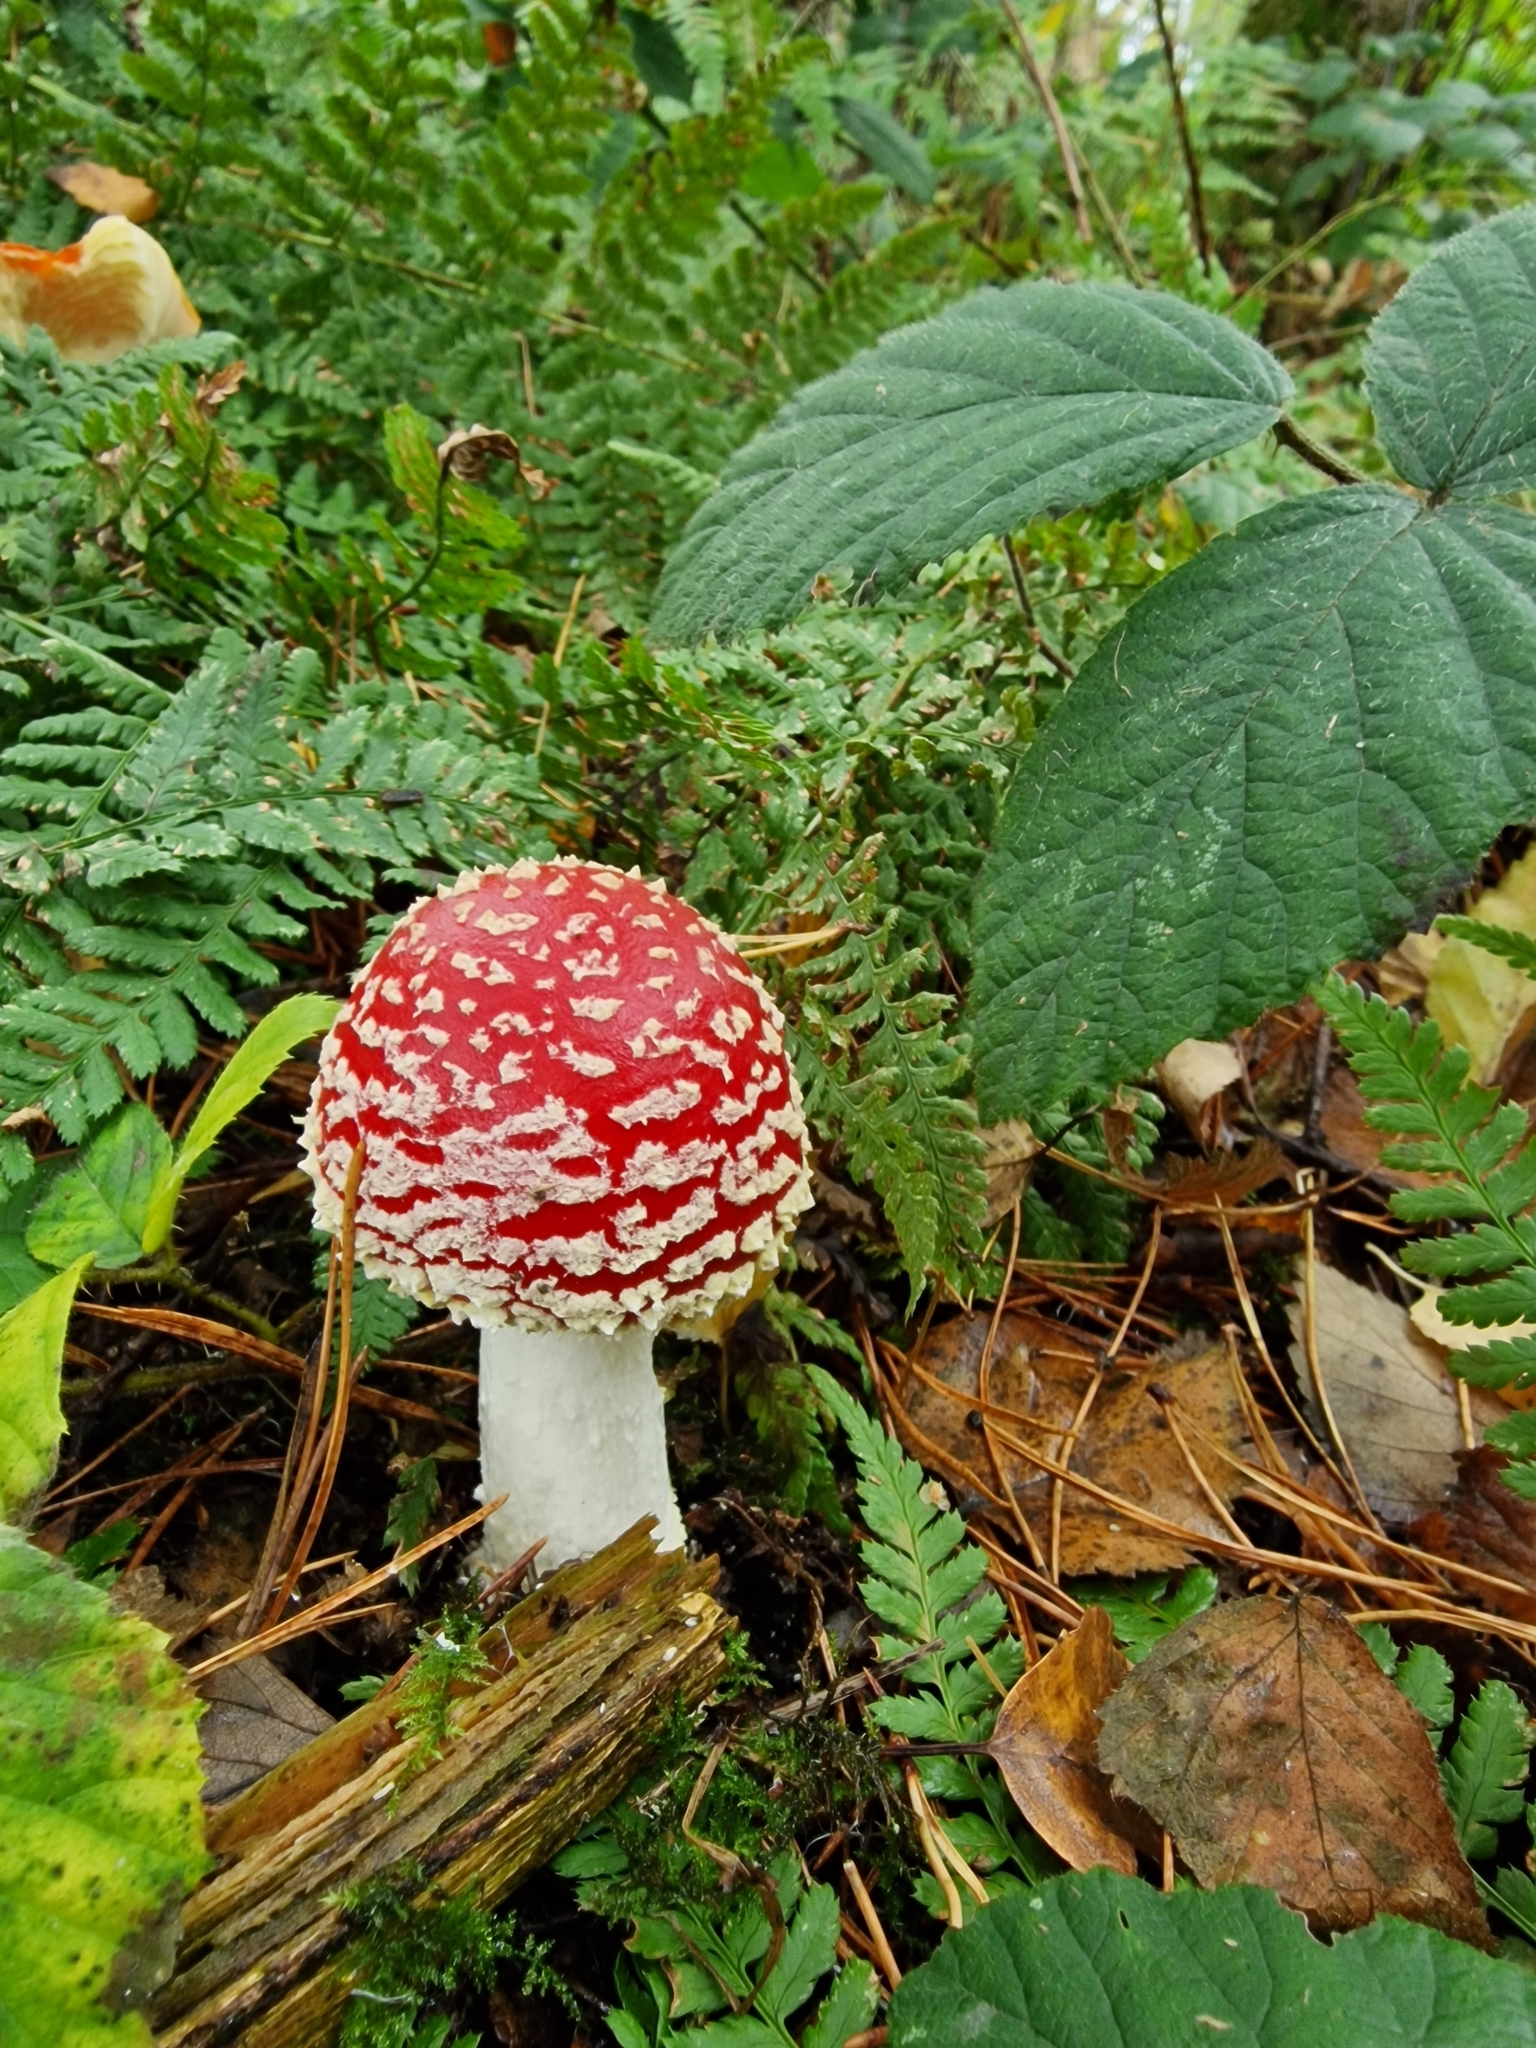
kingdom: Fungi
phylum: Basidiomycota
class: Agaricomycetes
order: Agaricales
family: Amanitaceae
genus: Amanita
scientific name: Amanita muscaria
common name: Fly agaric
